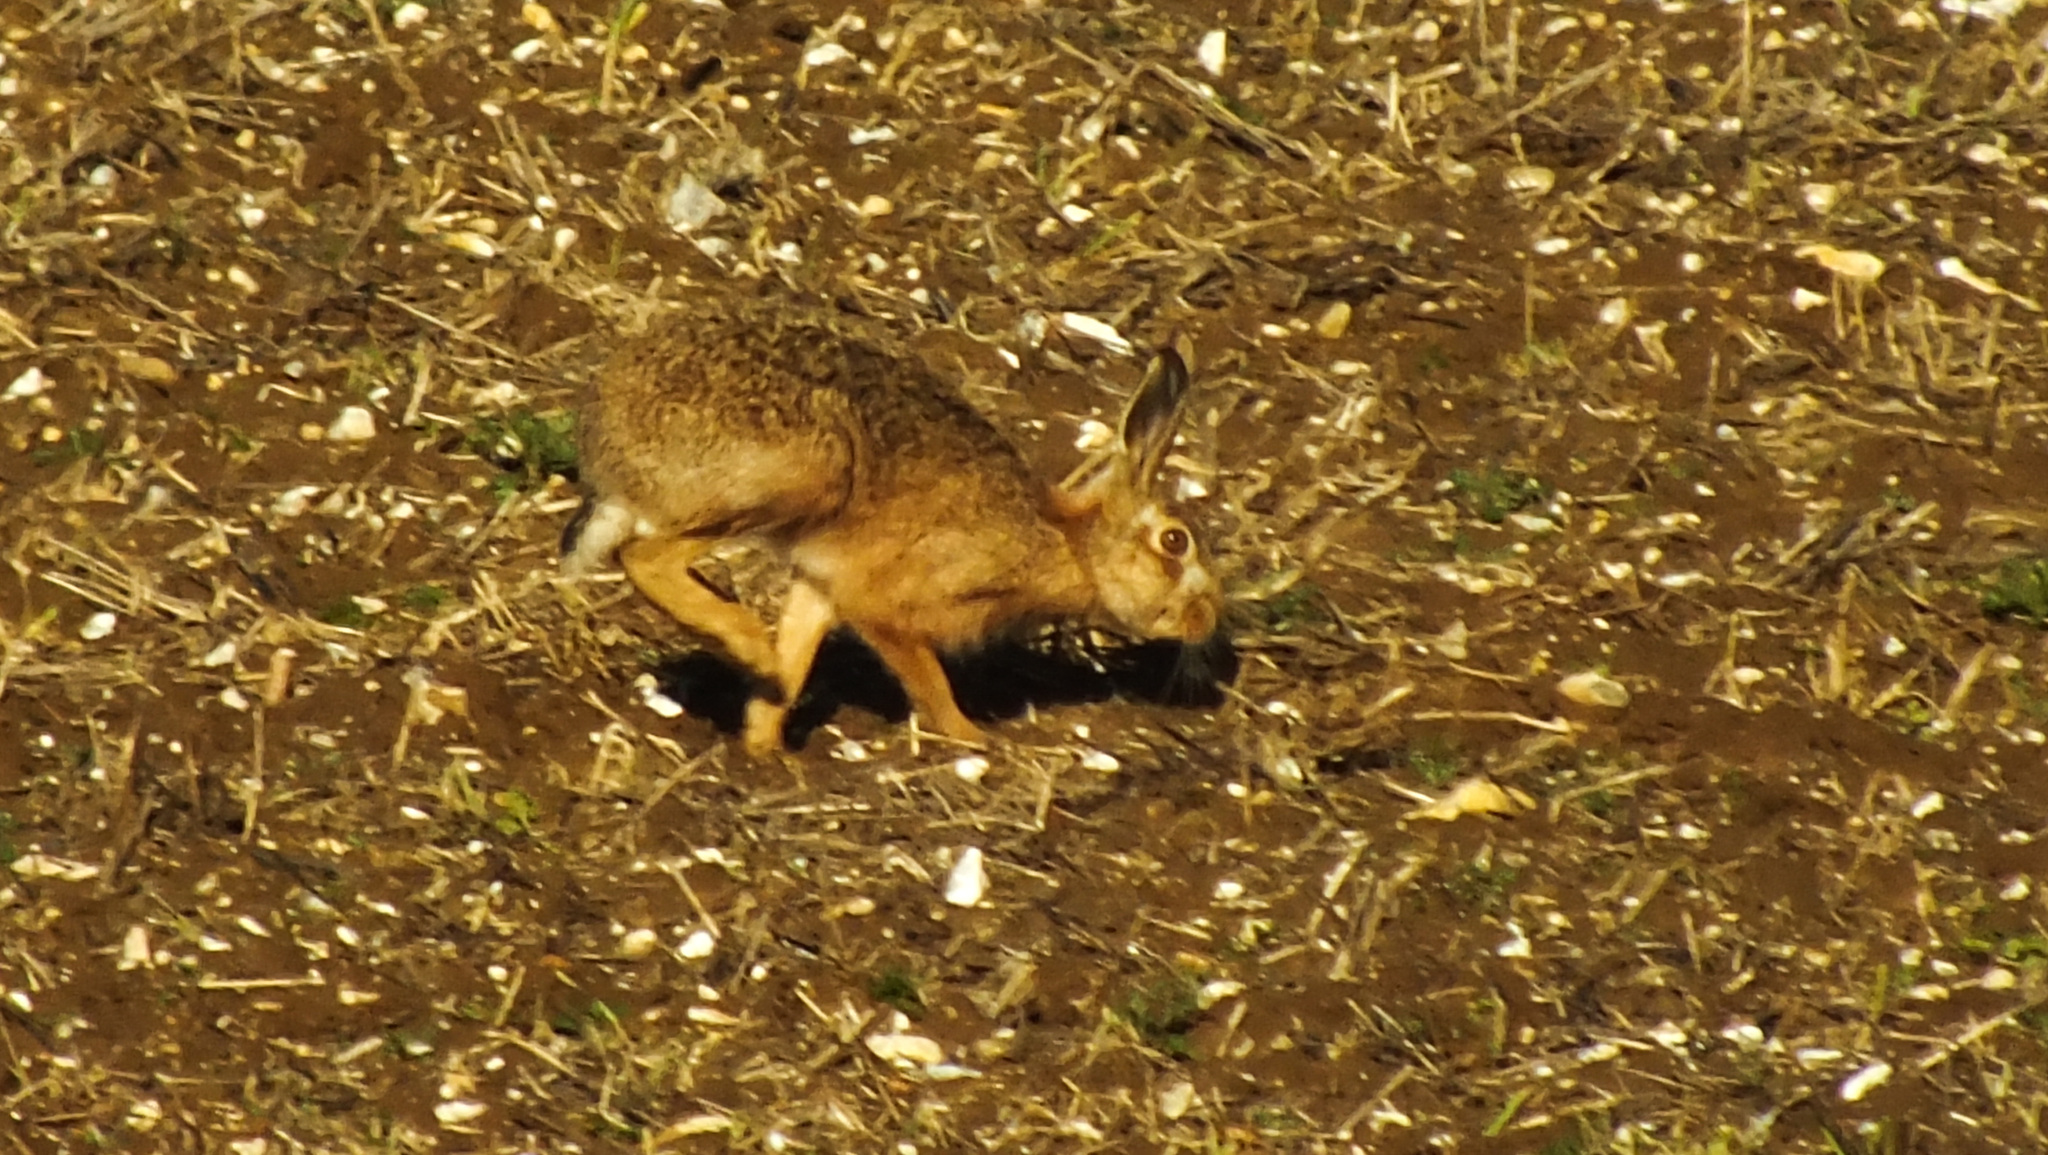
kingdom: Animalia
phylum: Chordata
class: Mammalia
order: Lagomorpha
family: Leporidae
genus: Lepus
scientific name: Lepus europaeus
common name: European hare
